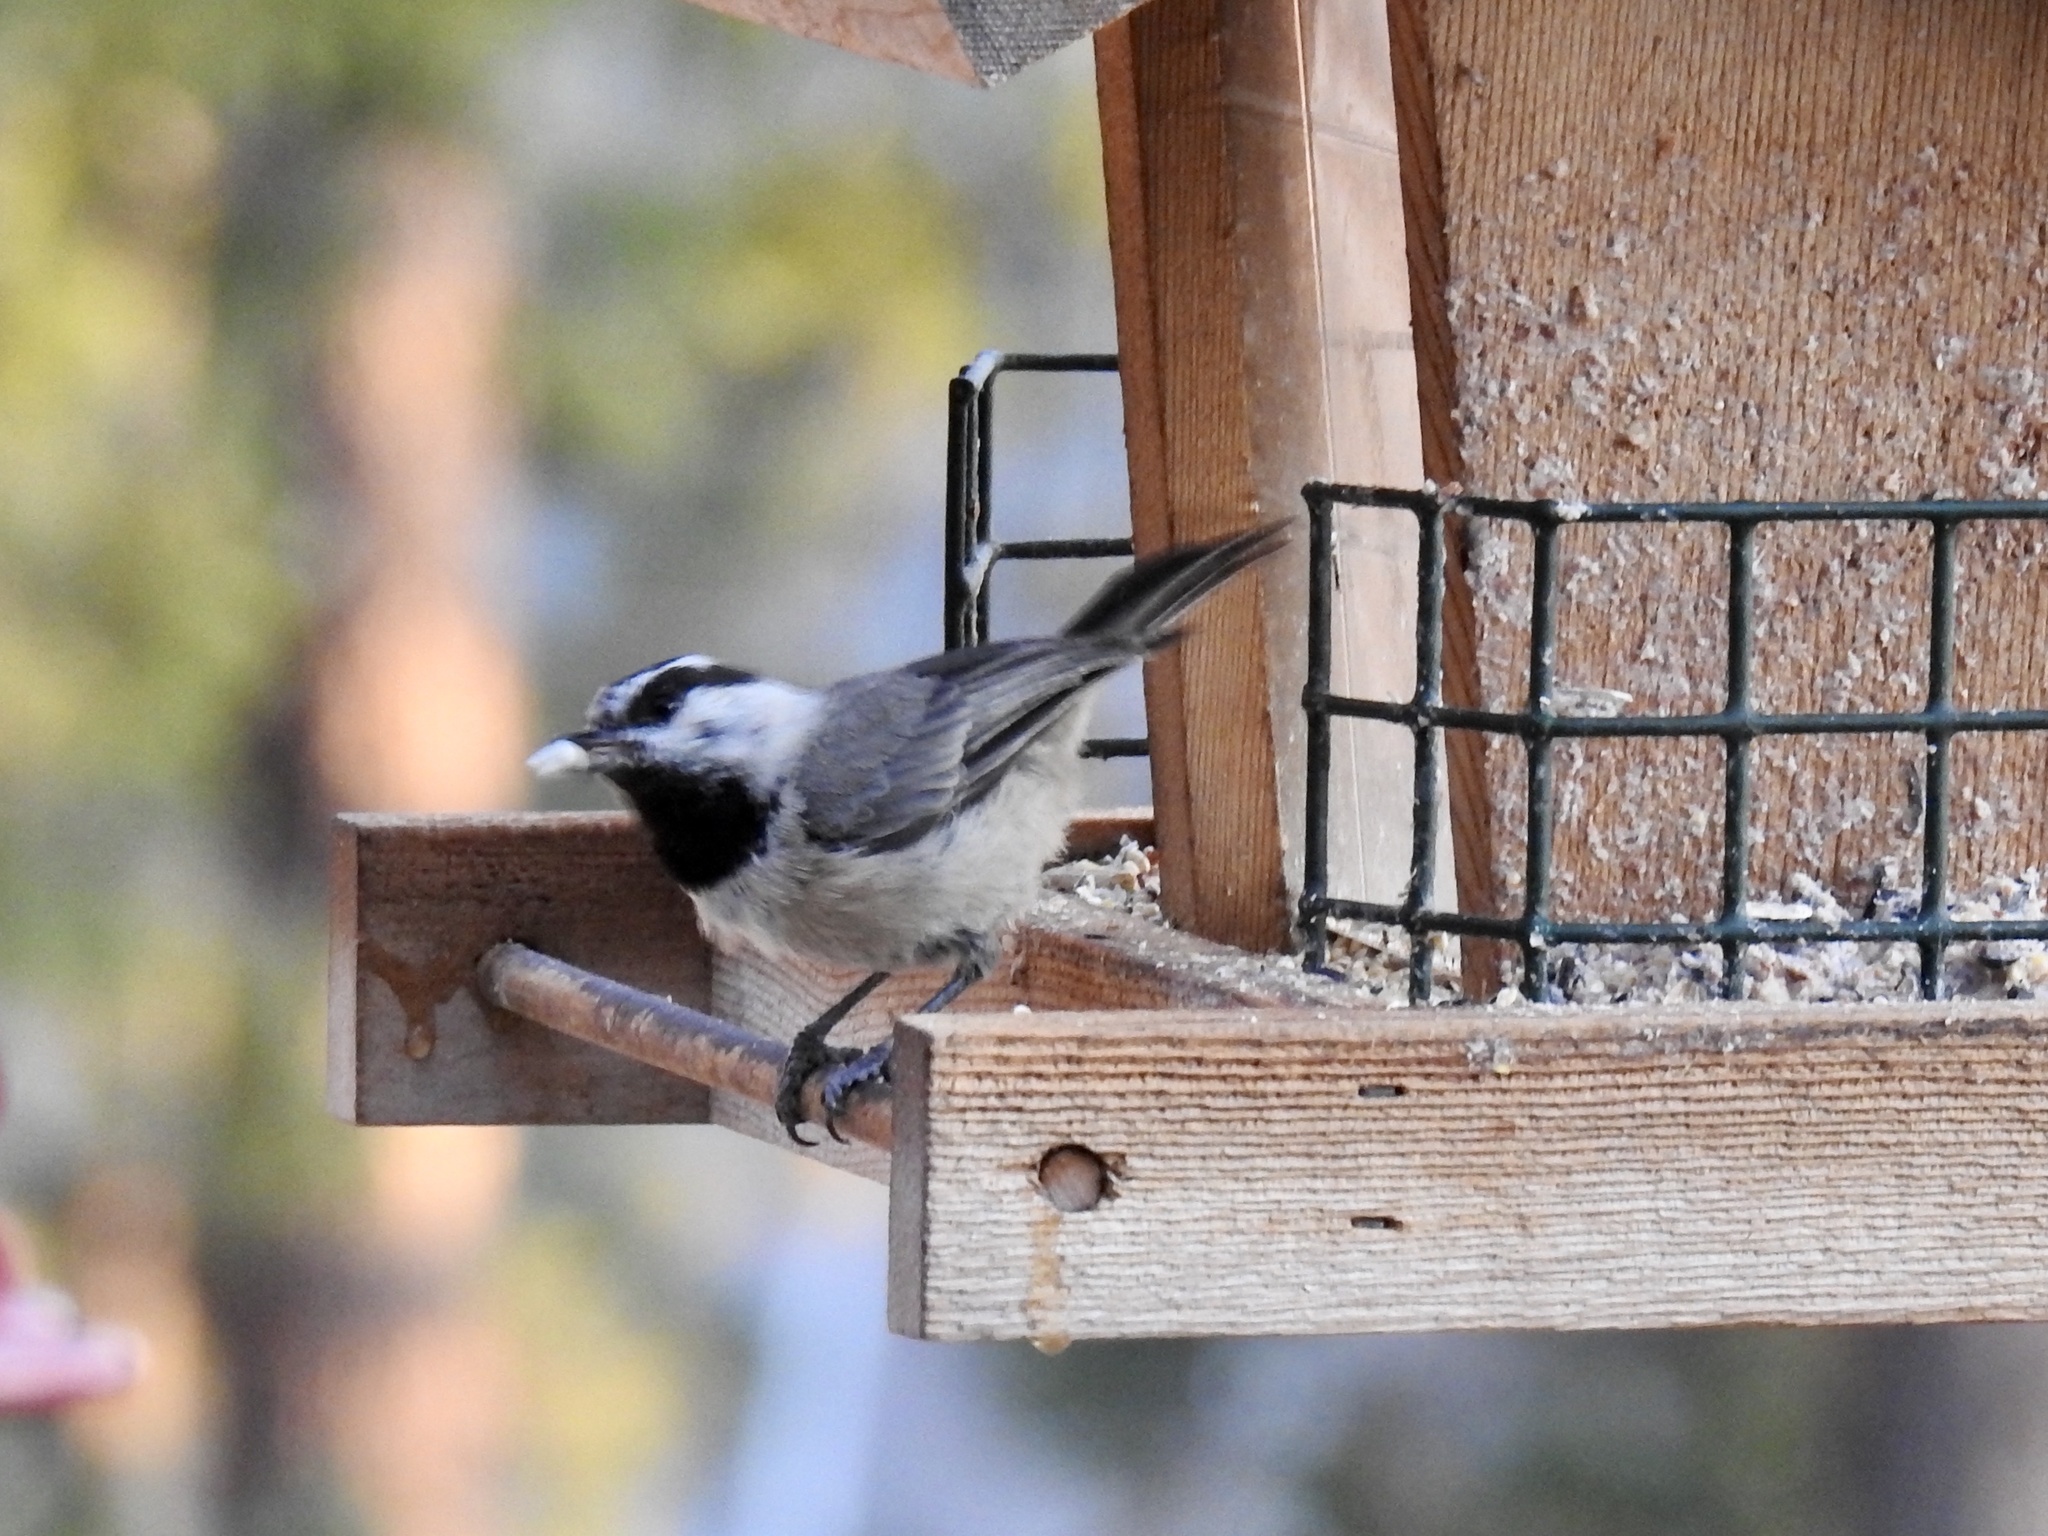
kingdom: Animalia
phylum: Chordata
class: Aves
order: Passeriformes
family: Paridae
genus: Poecile
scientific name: Poecile gambeli
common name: Mountain chickadee
